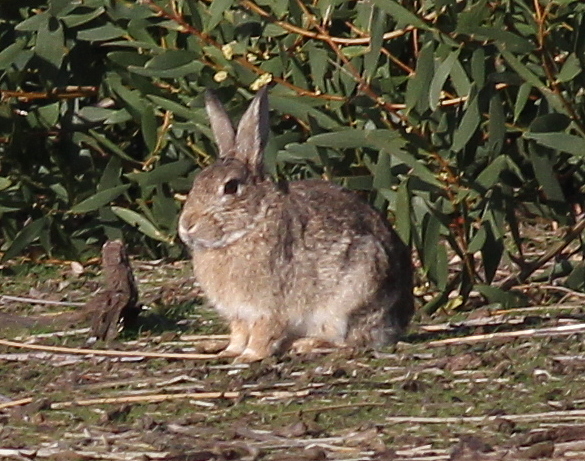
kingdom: Animalia
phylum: Chordata
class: Mammalia
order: Lagomorpha
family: Leporidae
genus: Oryctolagus
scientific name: Oryctolagus cuniculus
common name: European rabbit
